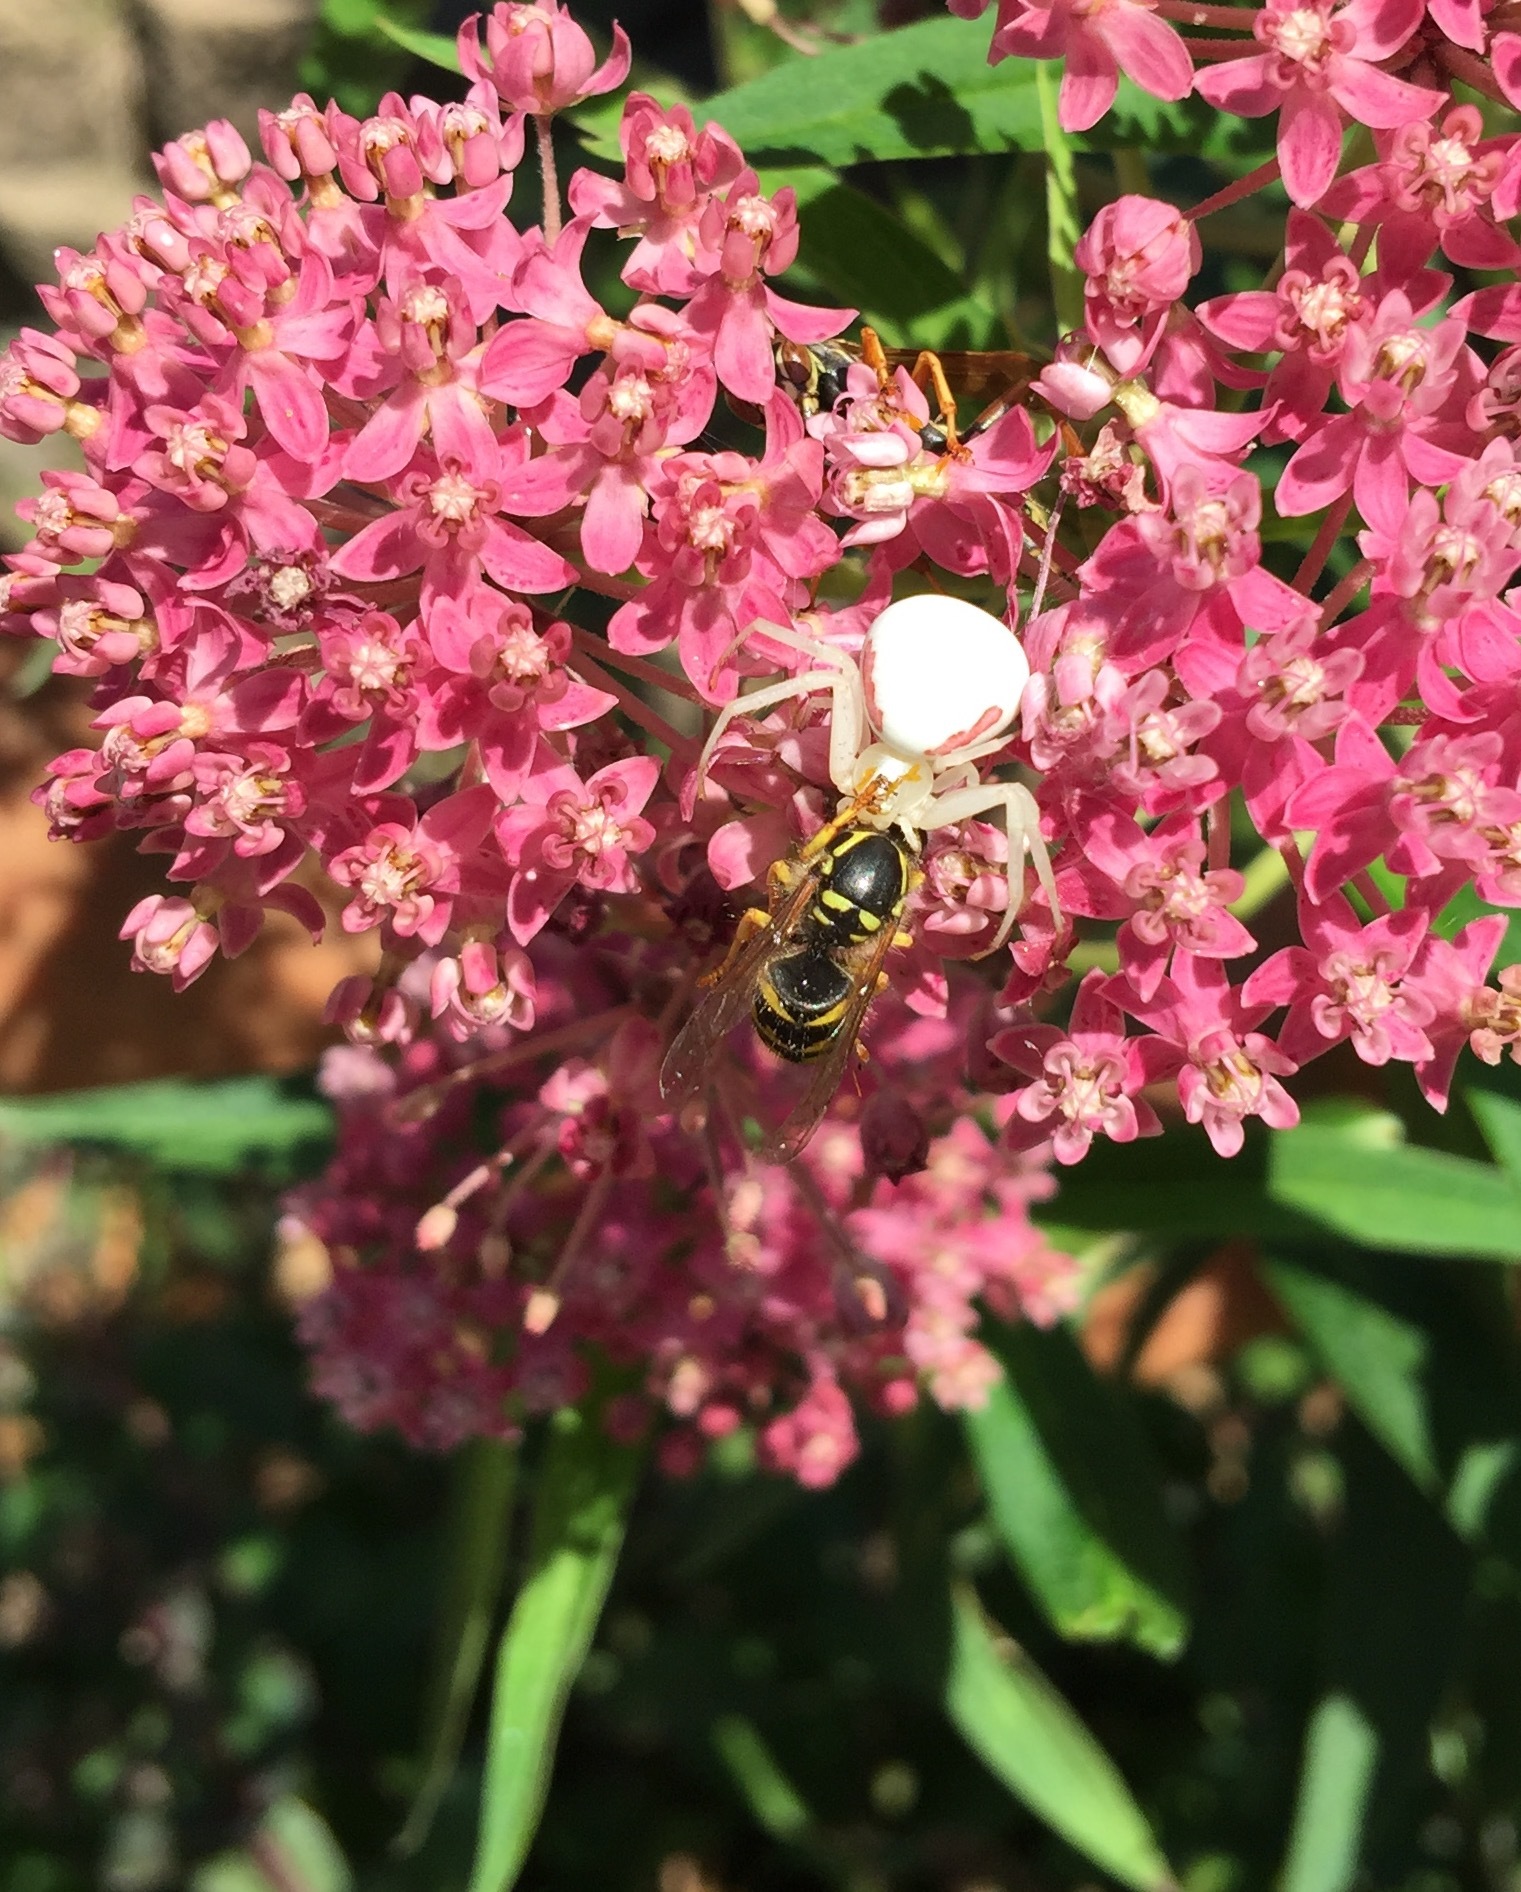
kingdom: Animalia
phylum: Arthropoda
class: Arachnida
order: Araneae
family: Thomisidae
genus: Misumena
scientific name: Misumena vatia
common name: Goldenrod crab spider
